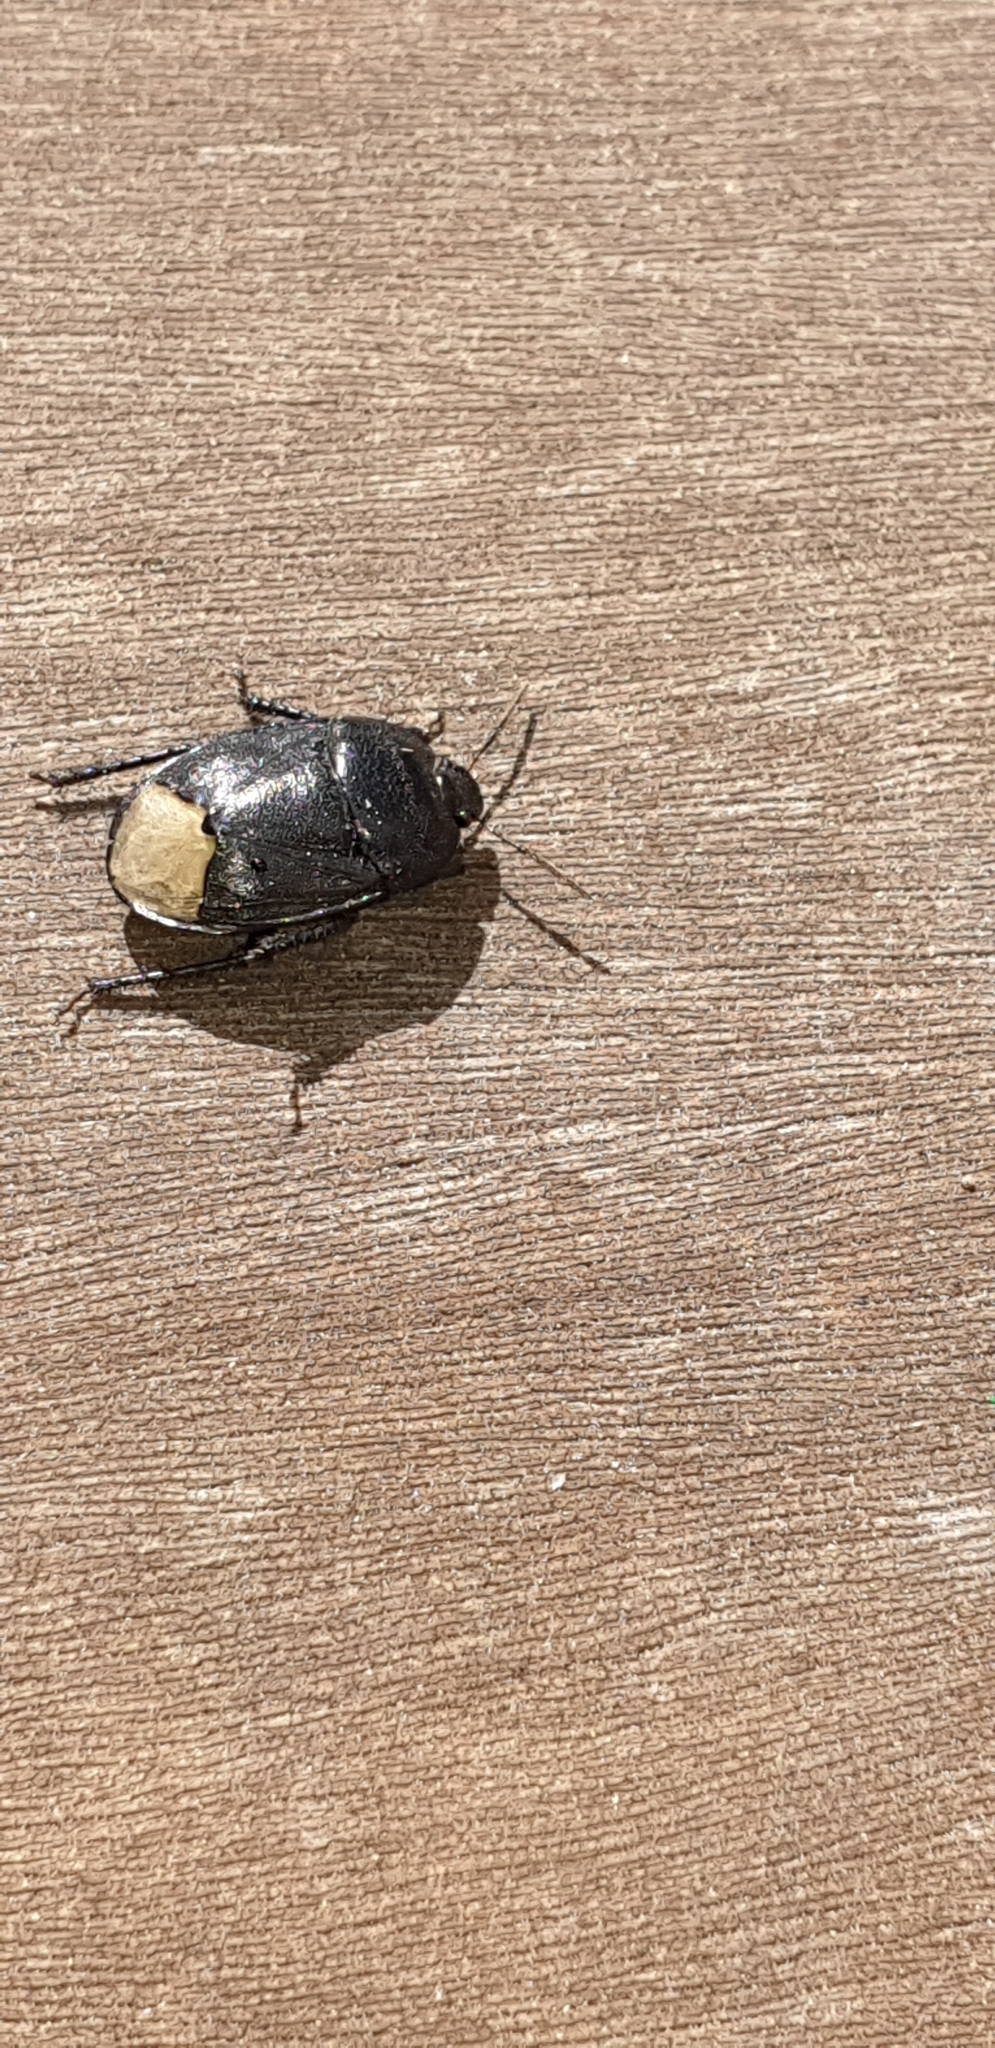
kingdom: Animalia
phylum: Arthropoda
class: Insecta
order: Hemiptera
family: Cydnidae
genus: Sehirus
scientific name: Sehirus morio
